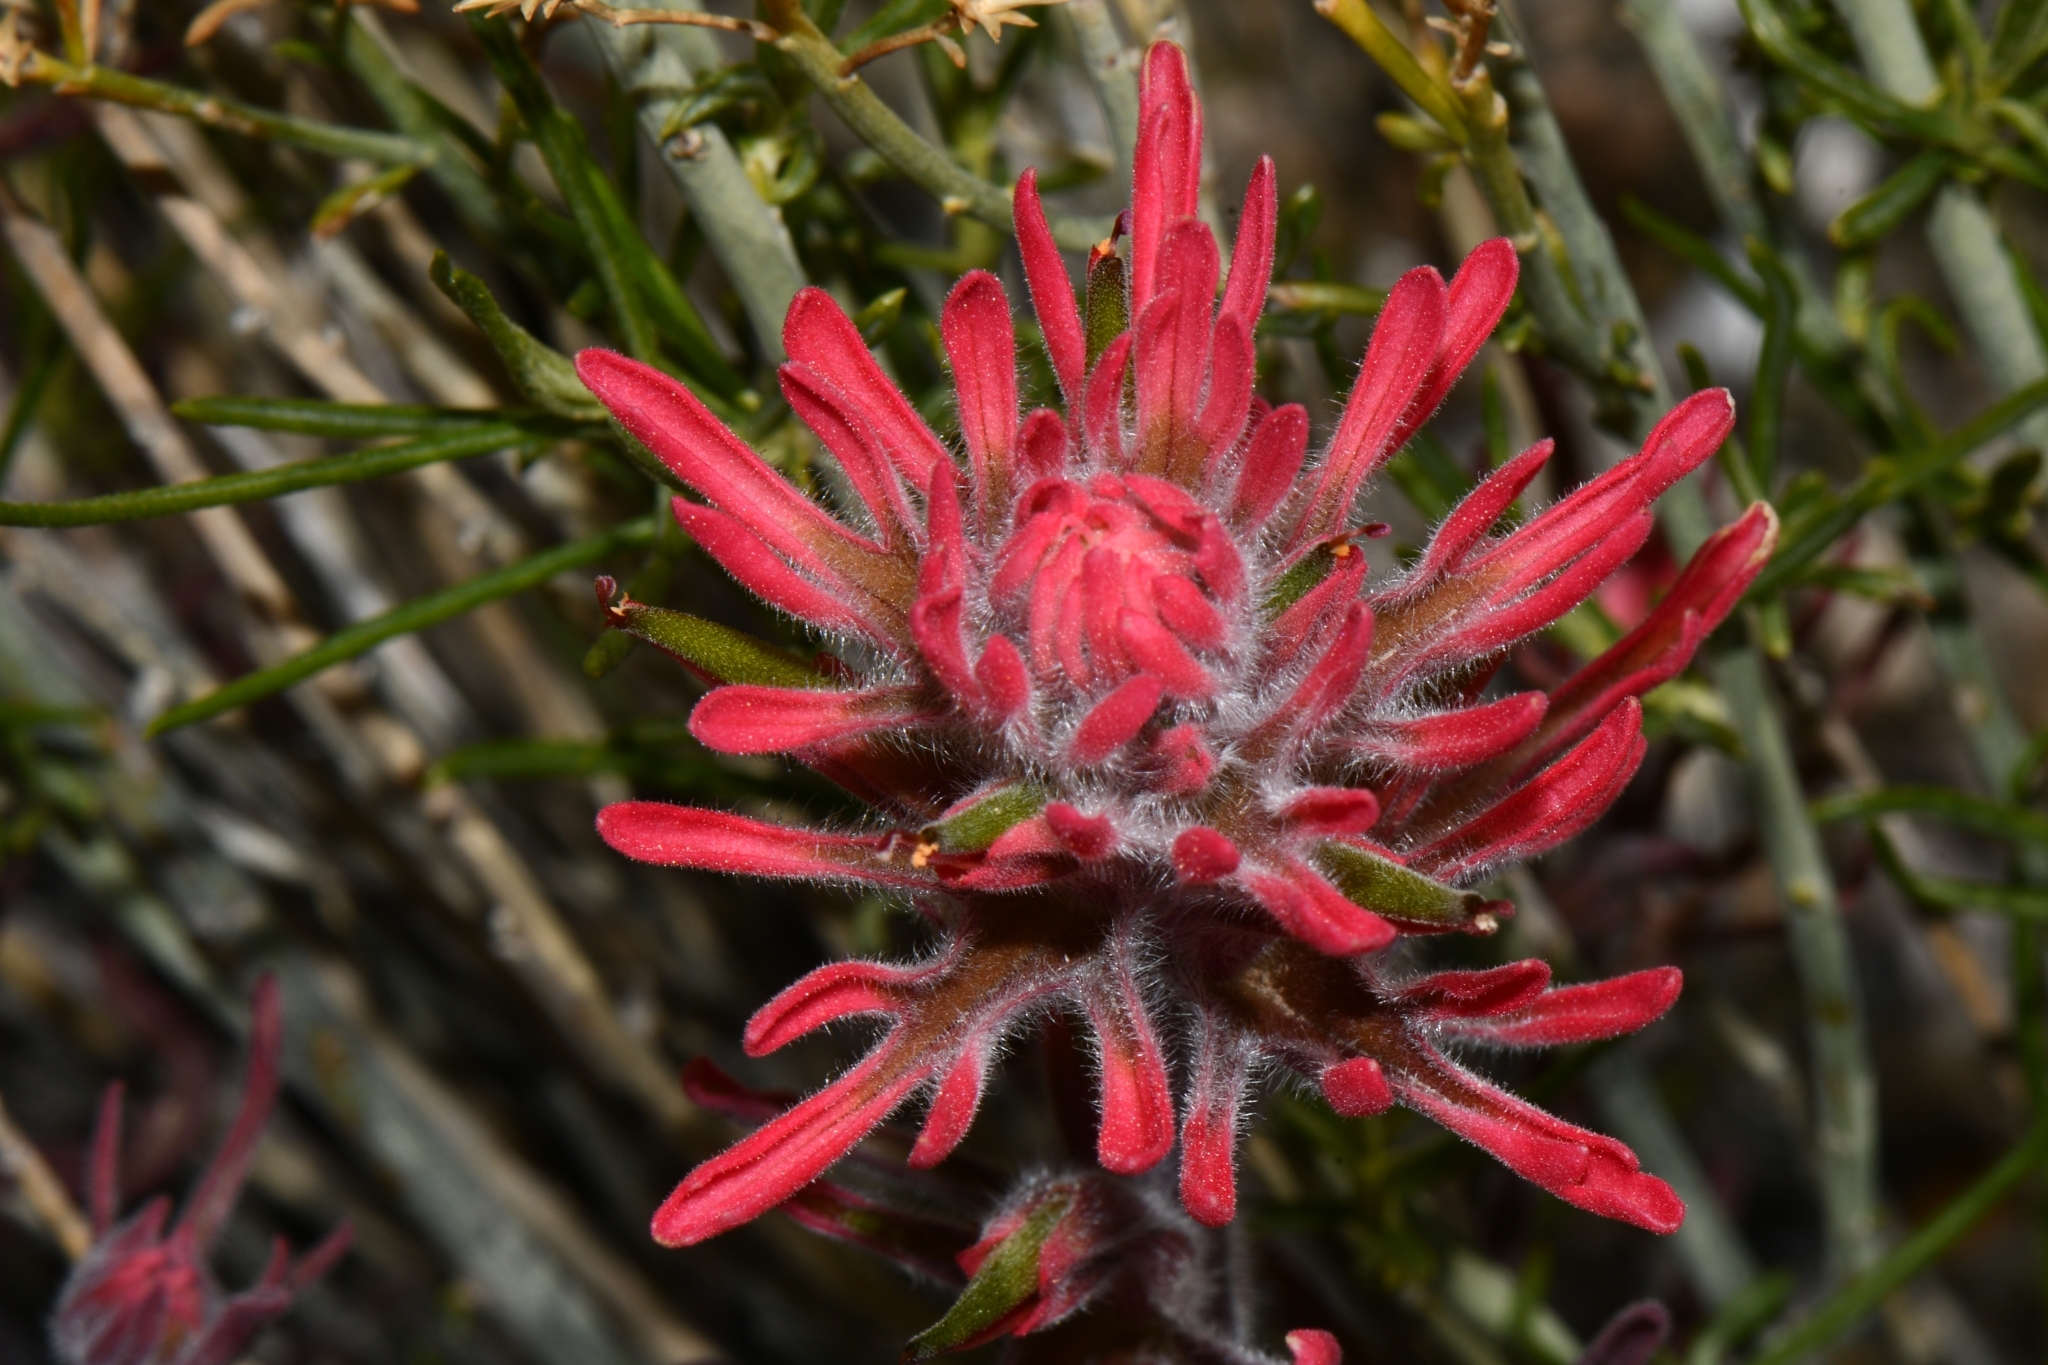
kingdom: Plantae
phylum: Tracheophyta
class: Magnoliopsida
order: Lamiales
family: Orobanchaceae
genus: Castilleja
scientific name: Castilleja chromosa
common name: Desert paintbrush
